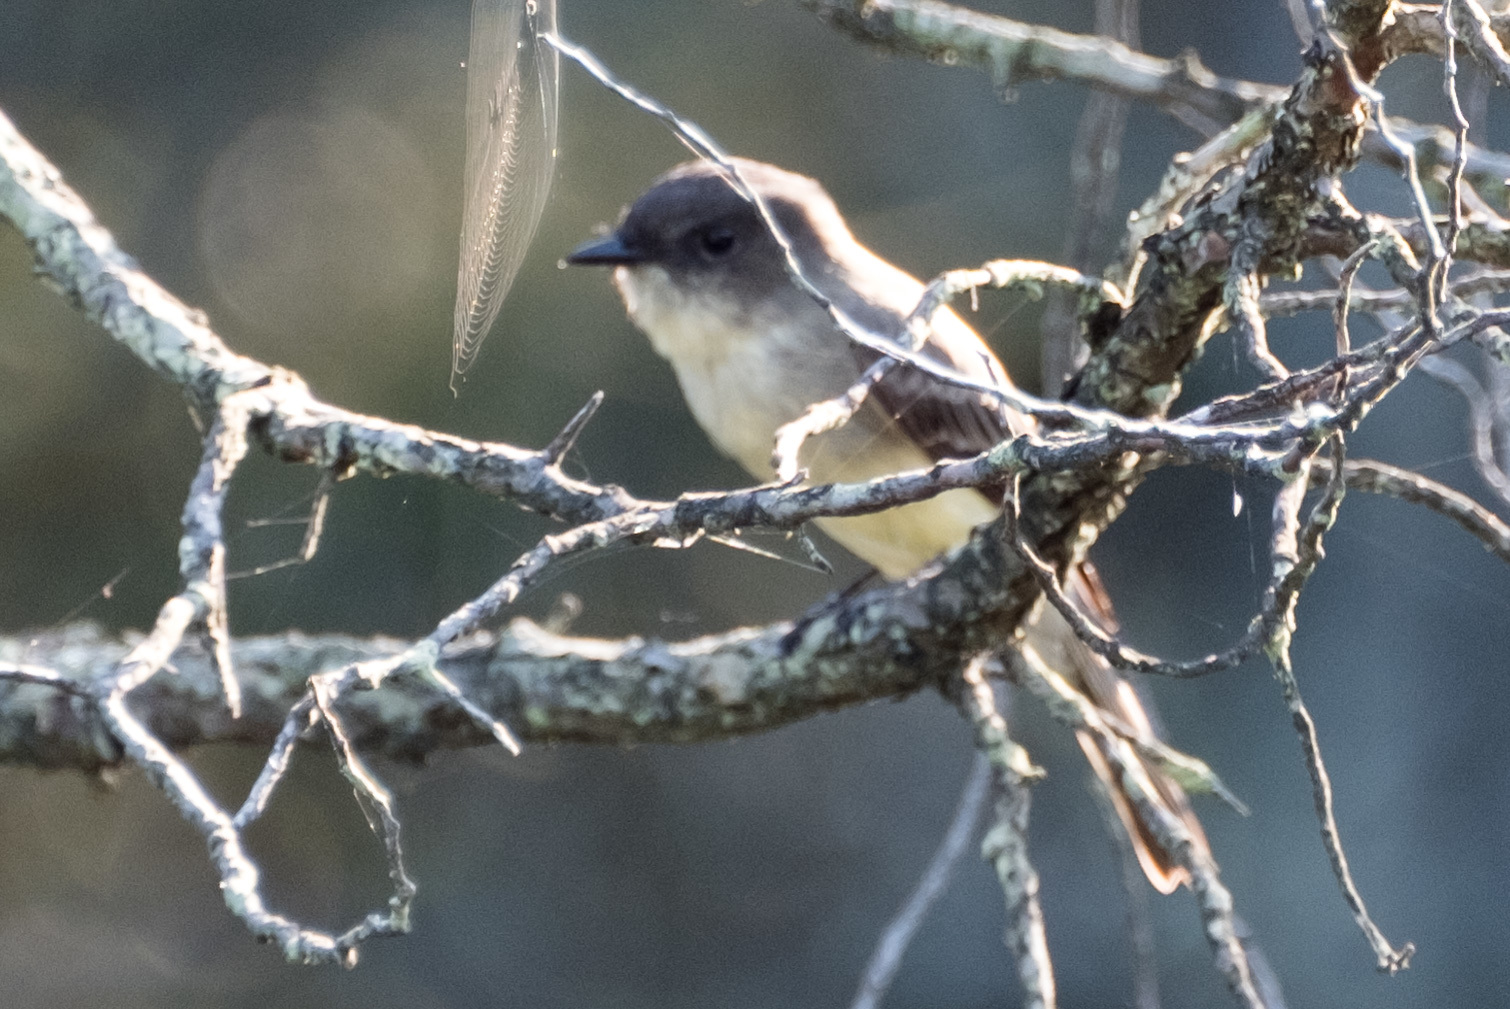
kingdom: Animalia
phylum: Chordata
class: Aves
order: Passeriformes
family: Tyrannidae
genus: Sayornis
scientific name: Sayornis phoebe
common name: Eastern phoebe
